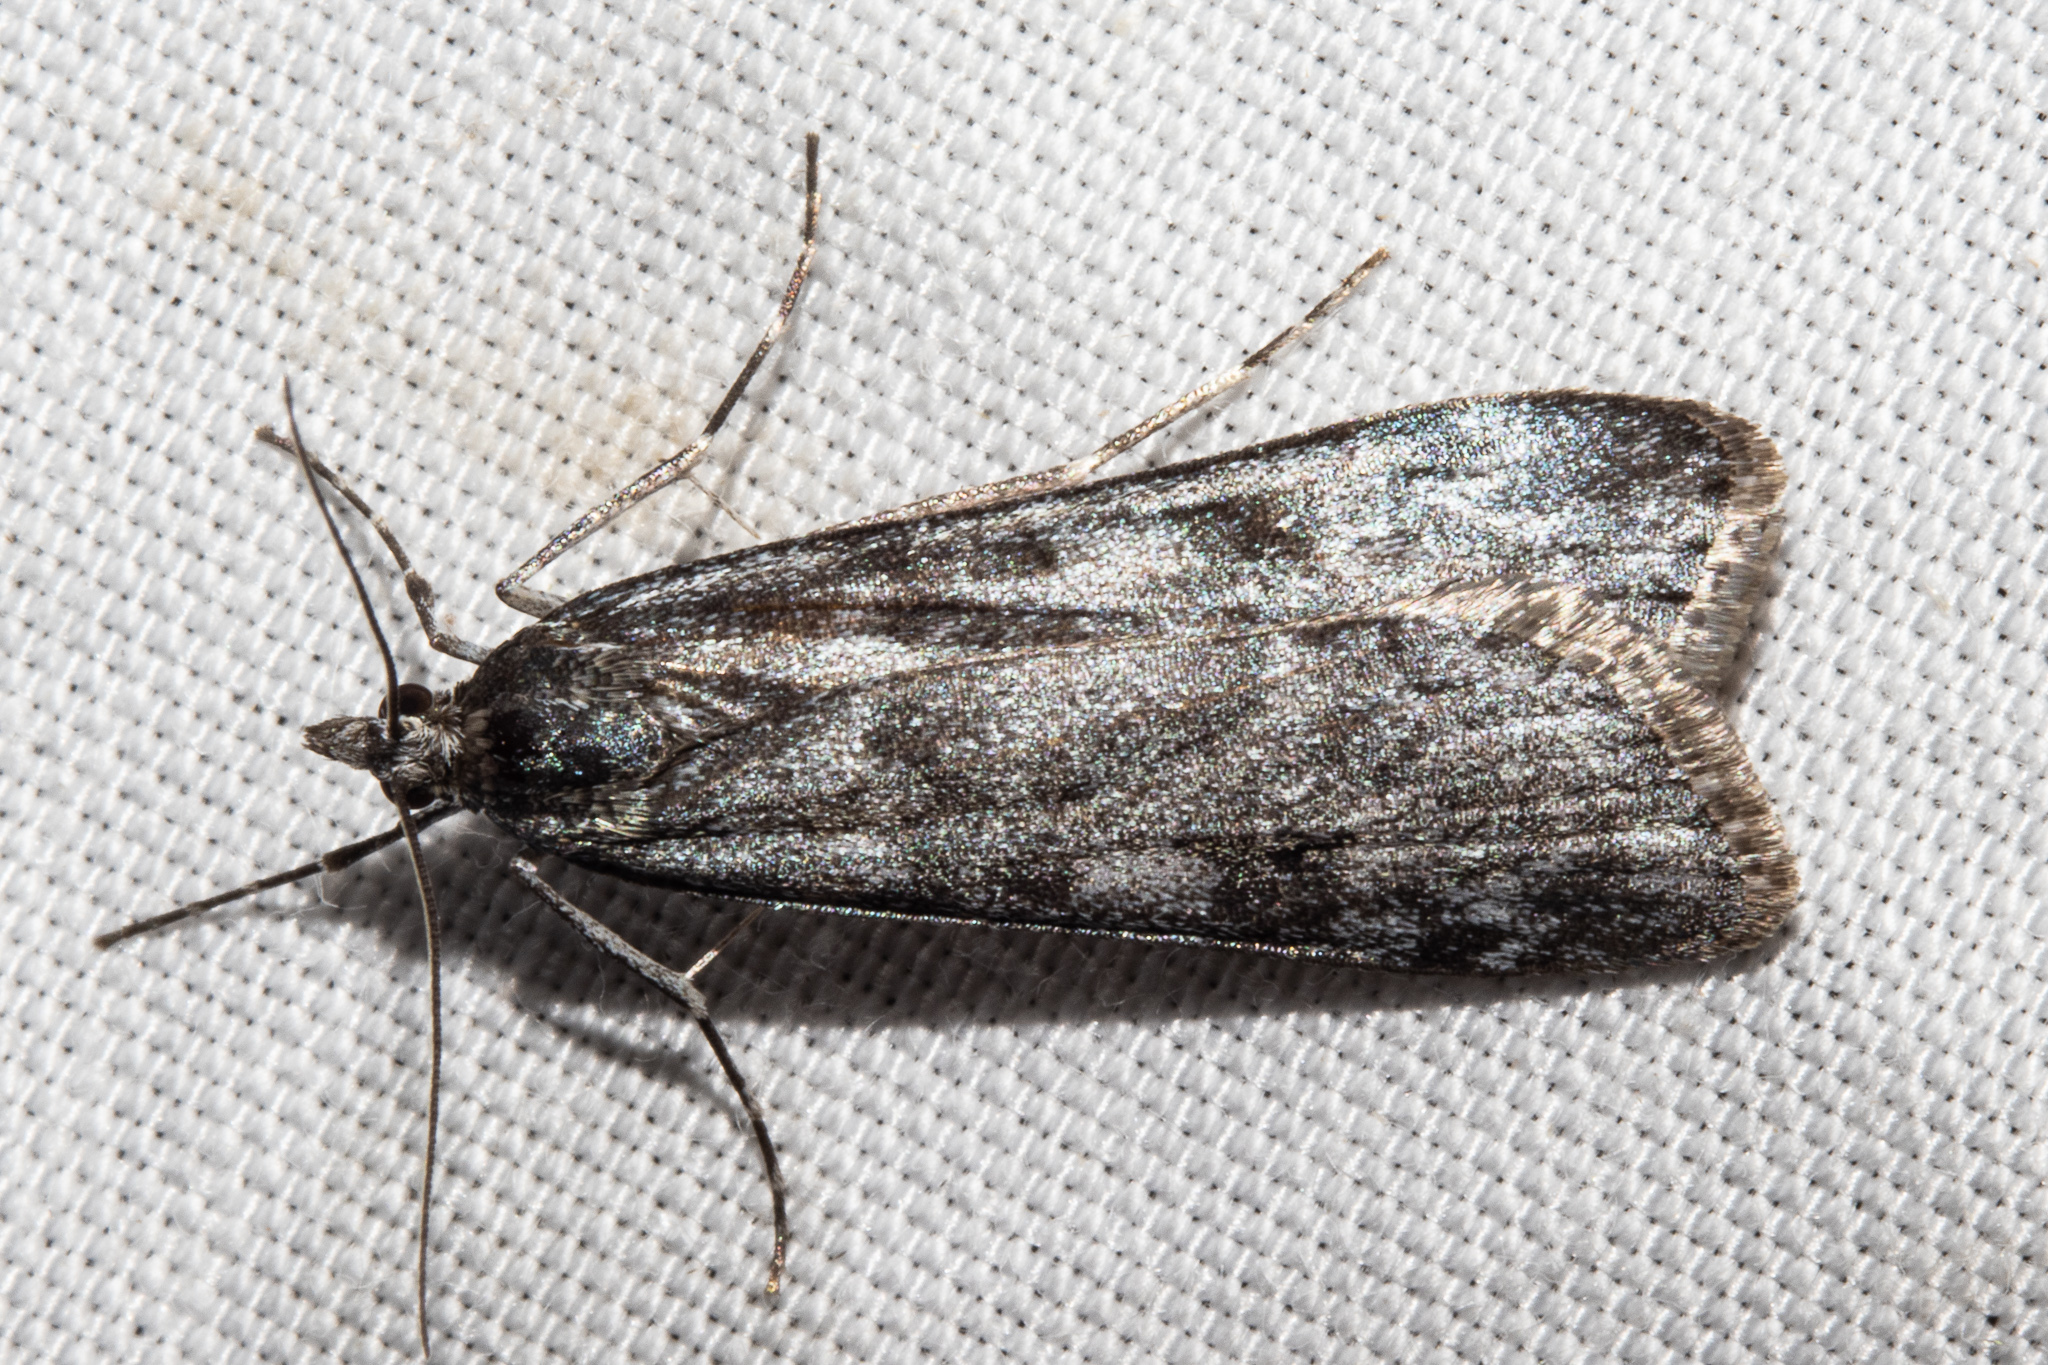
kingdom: Animalia
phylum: Arthropoda
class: Insecta
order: Lepidoptera
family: Crambidae
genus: Scoparia
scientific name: Scoparia contexta
